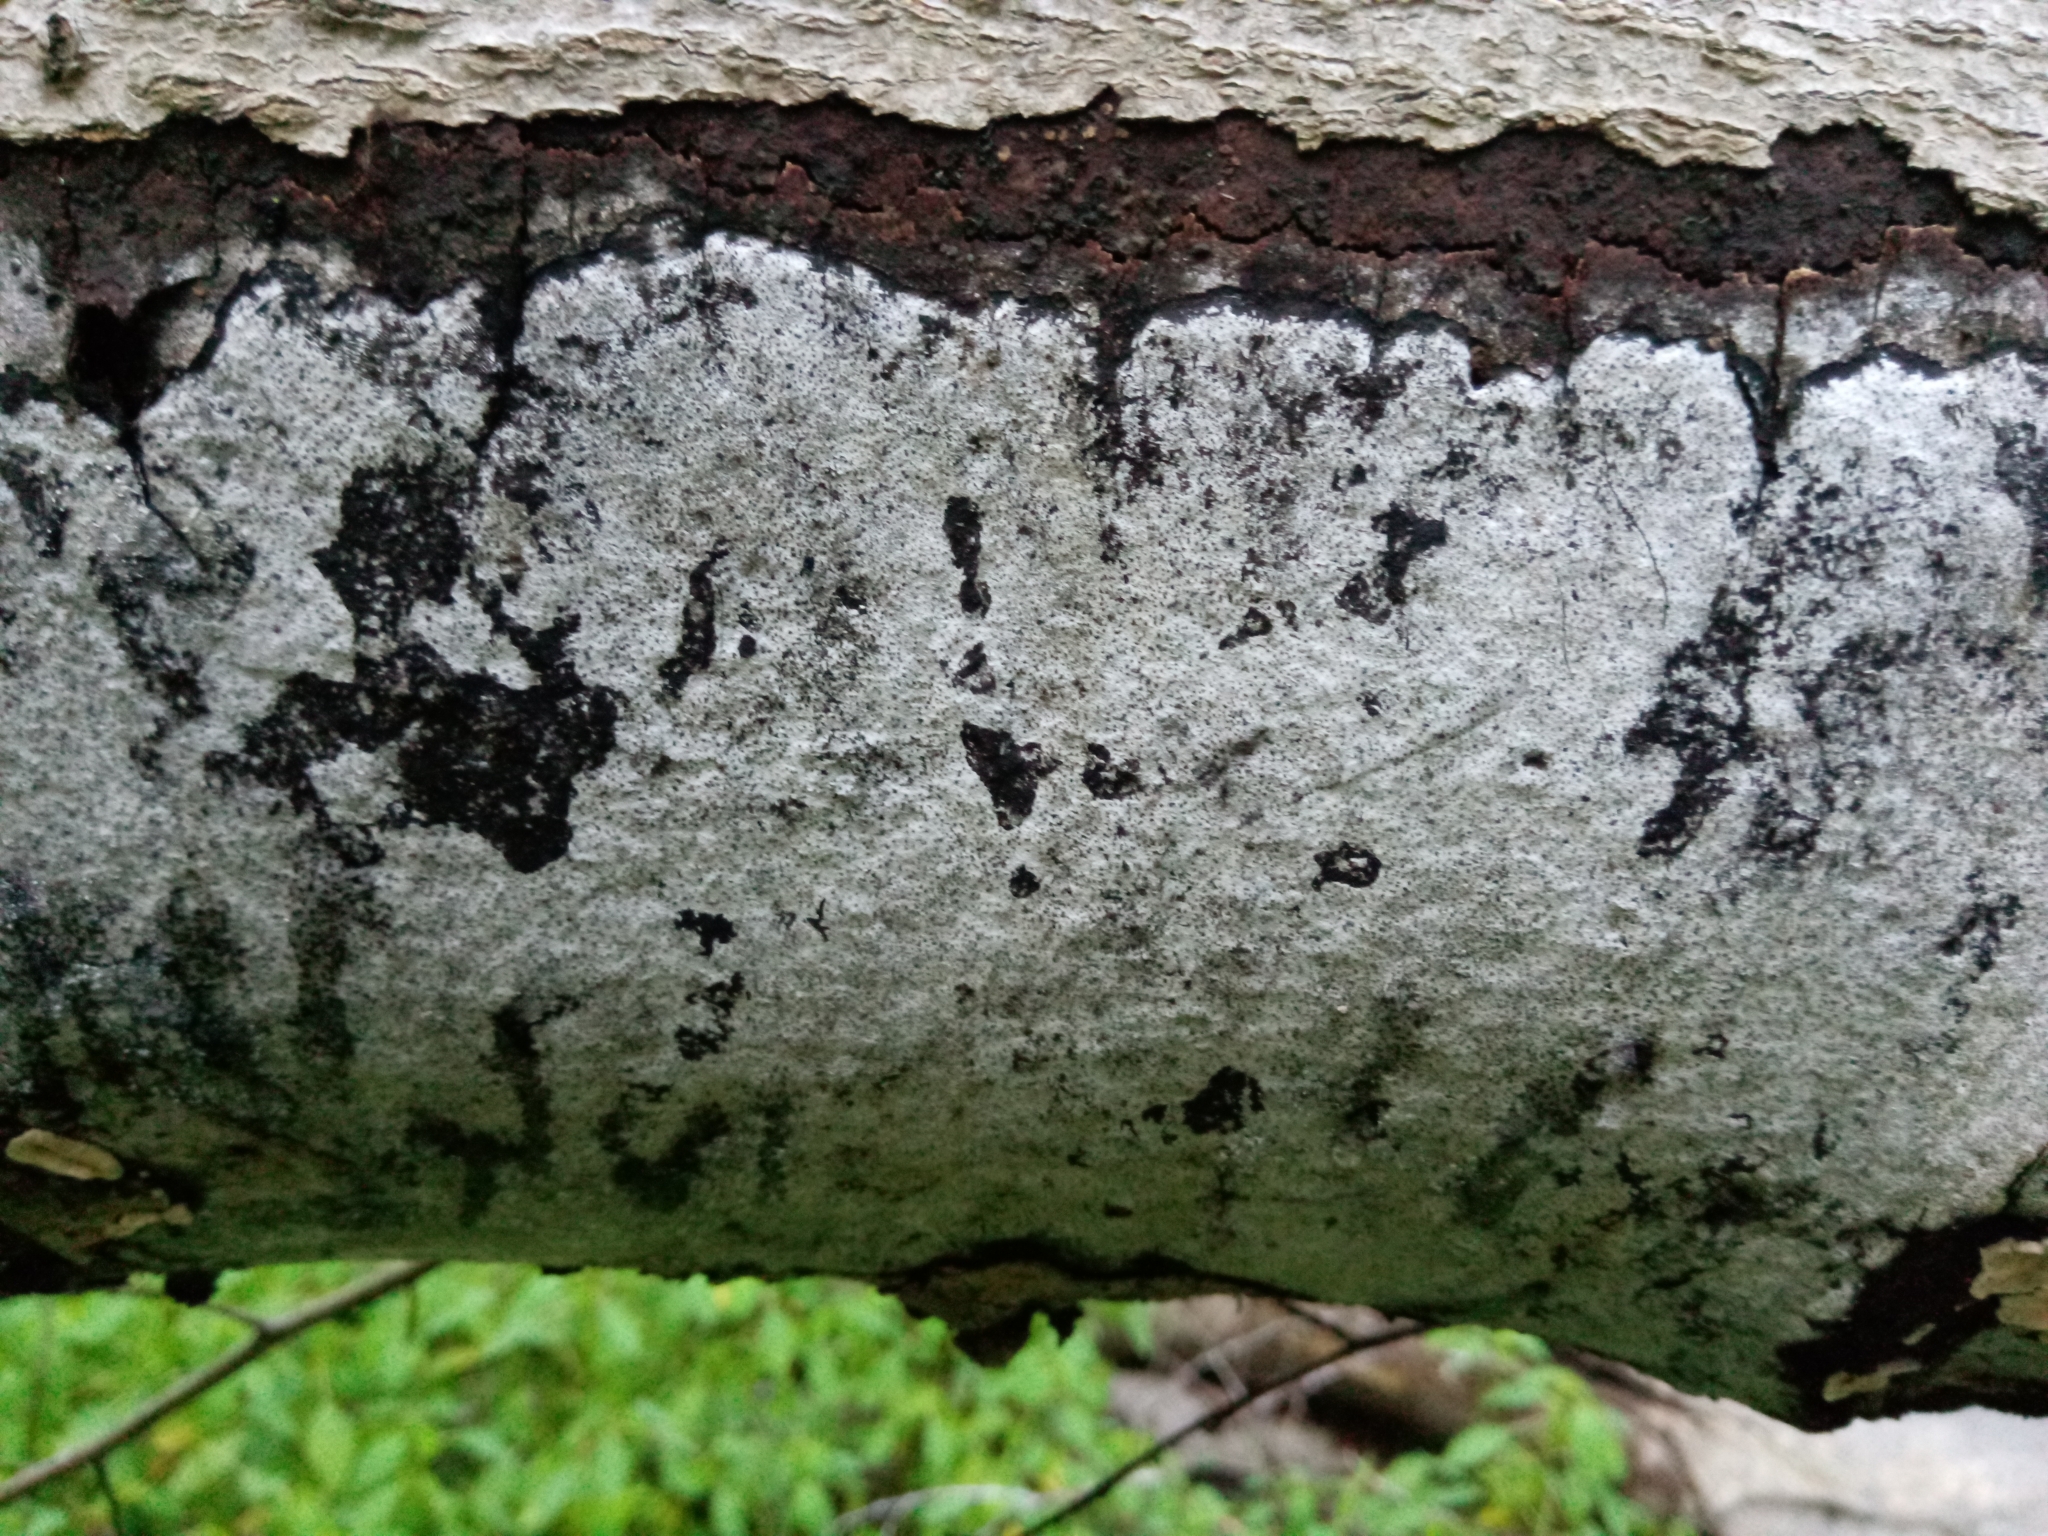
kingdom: Fungi
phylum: Ascomycota
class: Sordariomycetes
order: Xylariales
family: Graphostromataceae
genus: Biscogniauxia
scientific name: Biscogniauxia atropunctata
